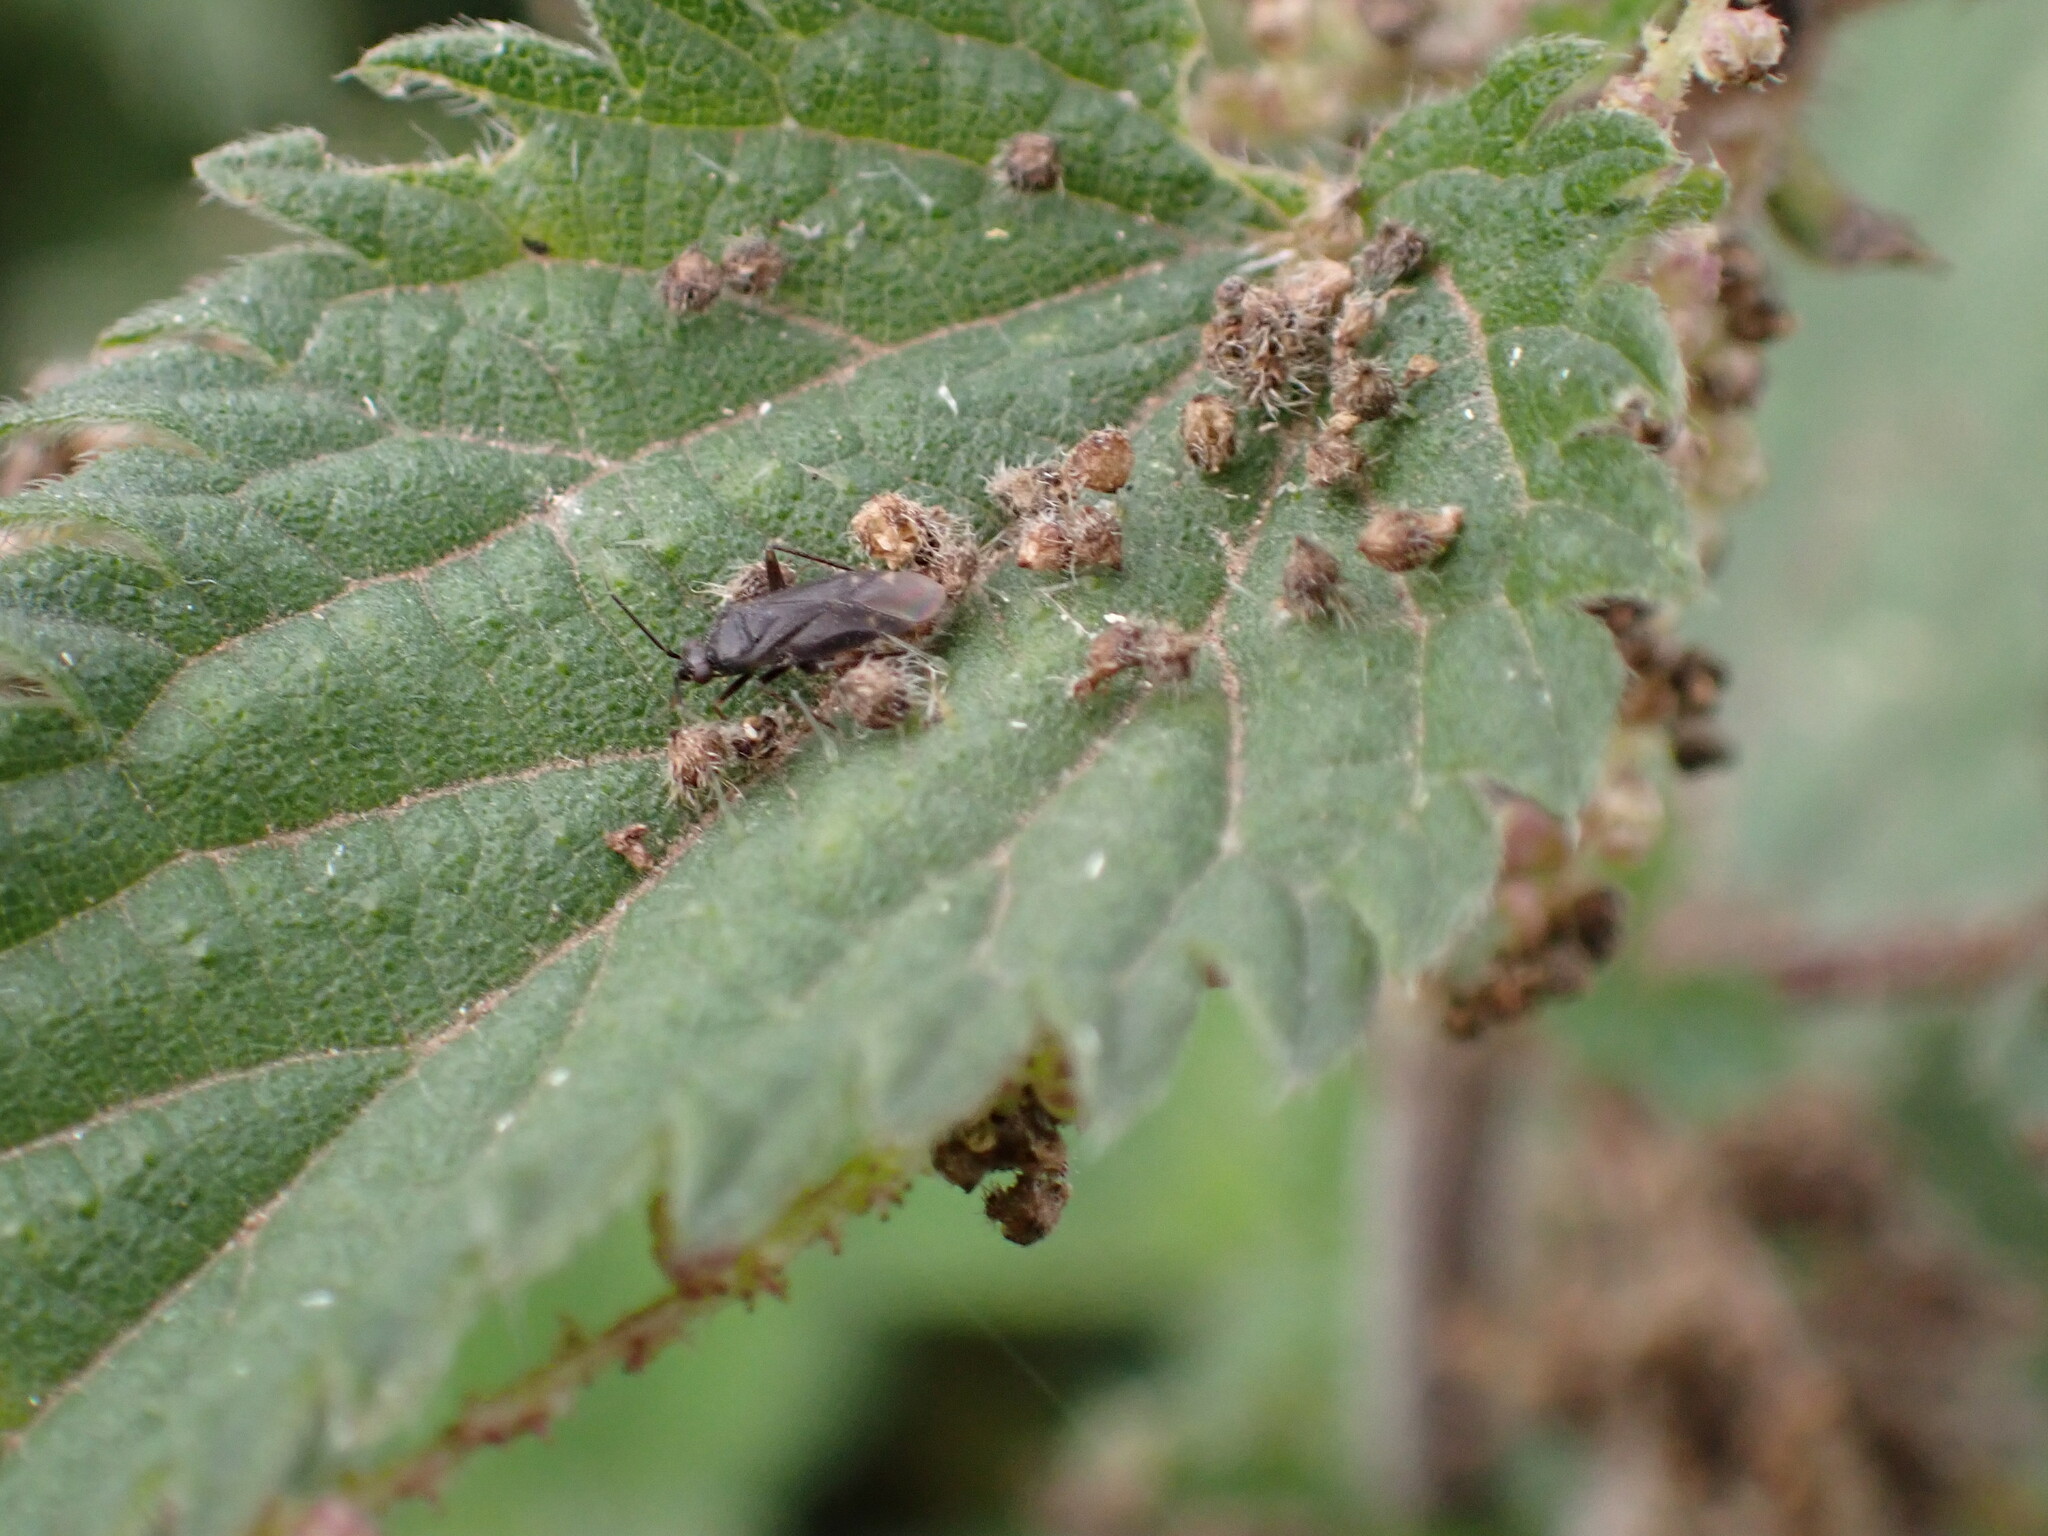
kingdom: Animalia
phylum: Arthropoda
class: Insecta
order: Hemiptera
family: Miridae
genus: Plagiognathus
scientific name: Plagiognathus arbustorum
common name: Plant bug
